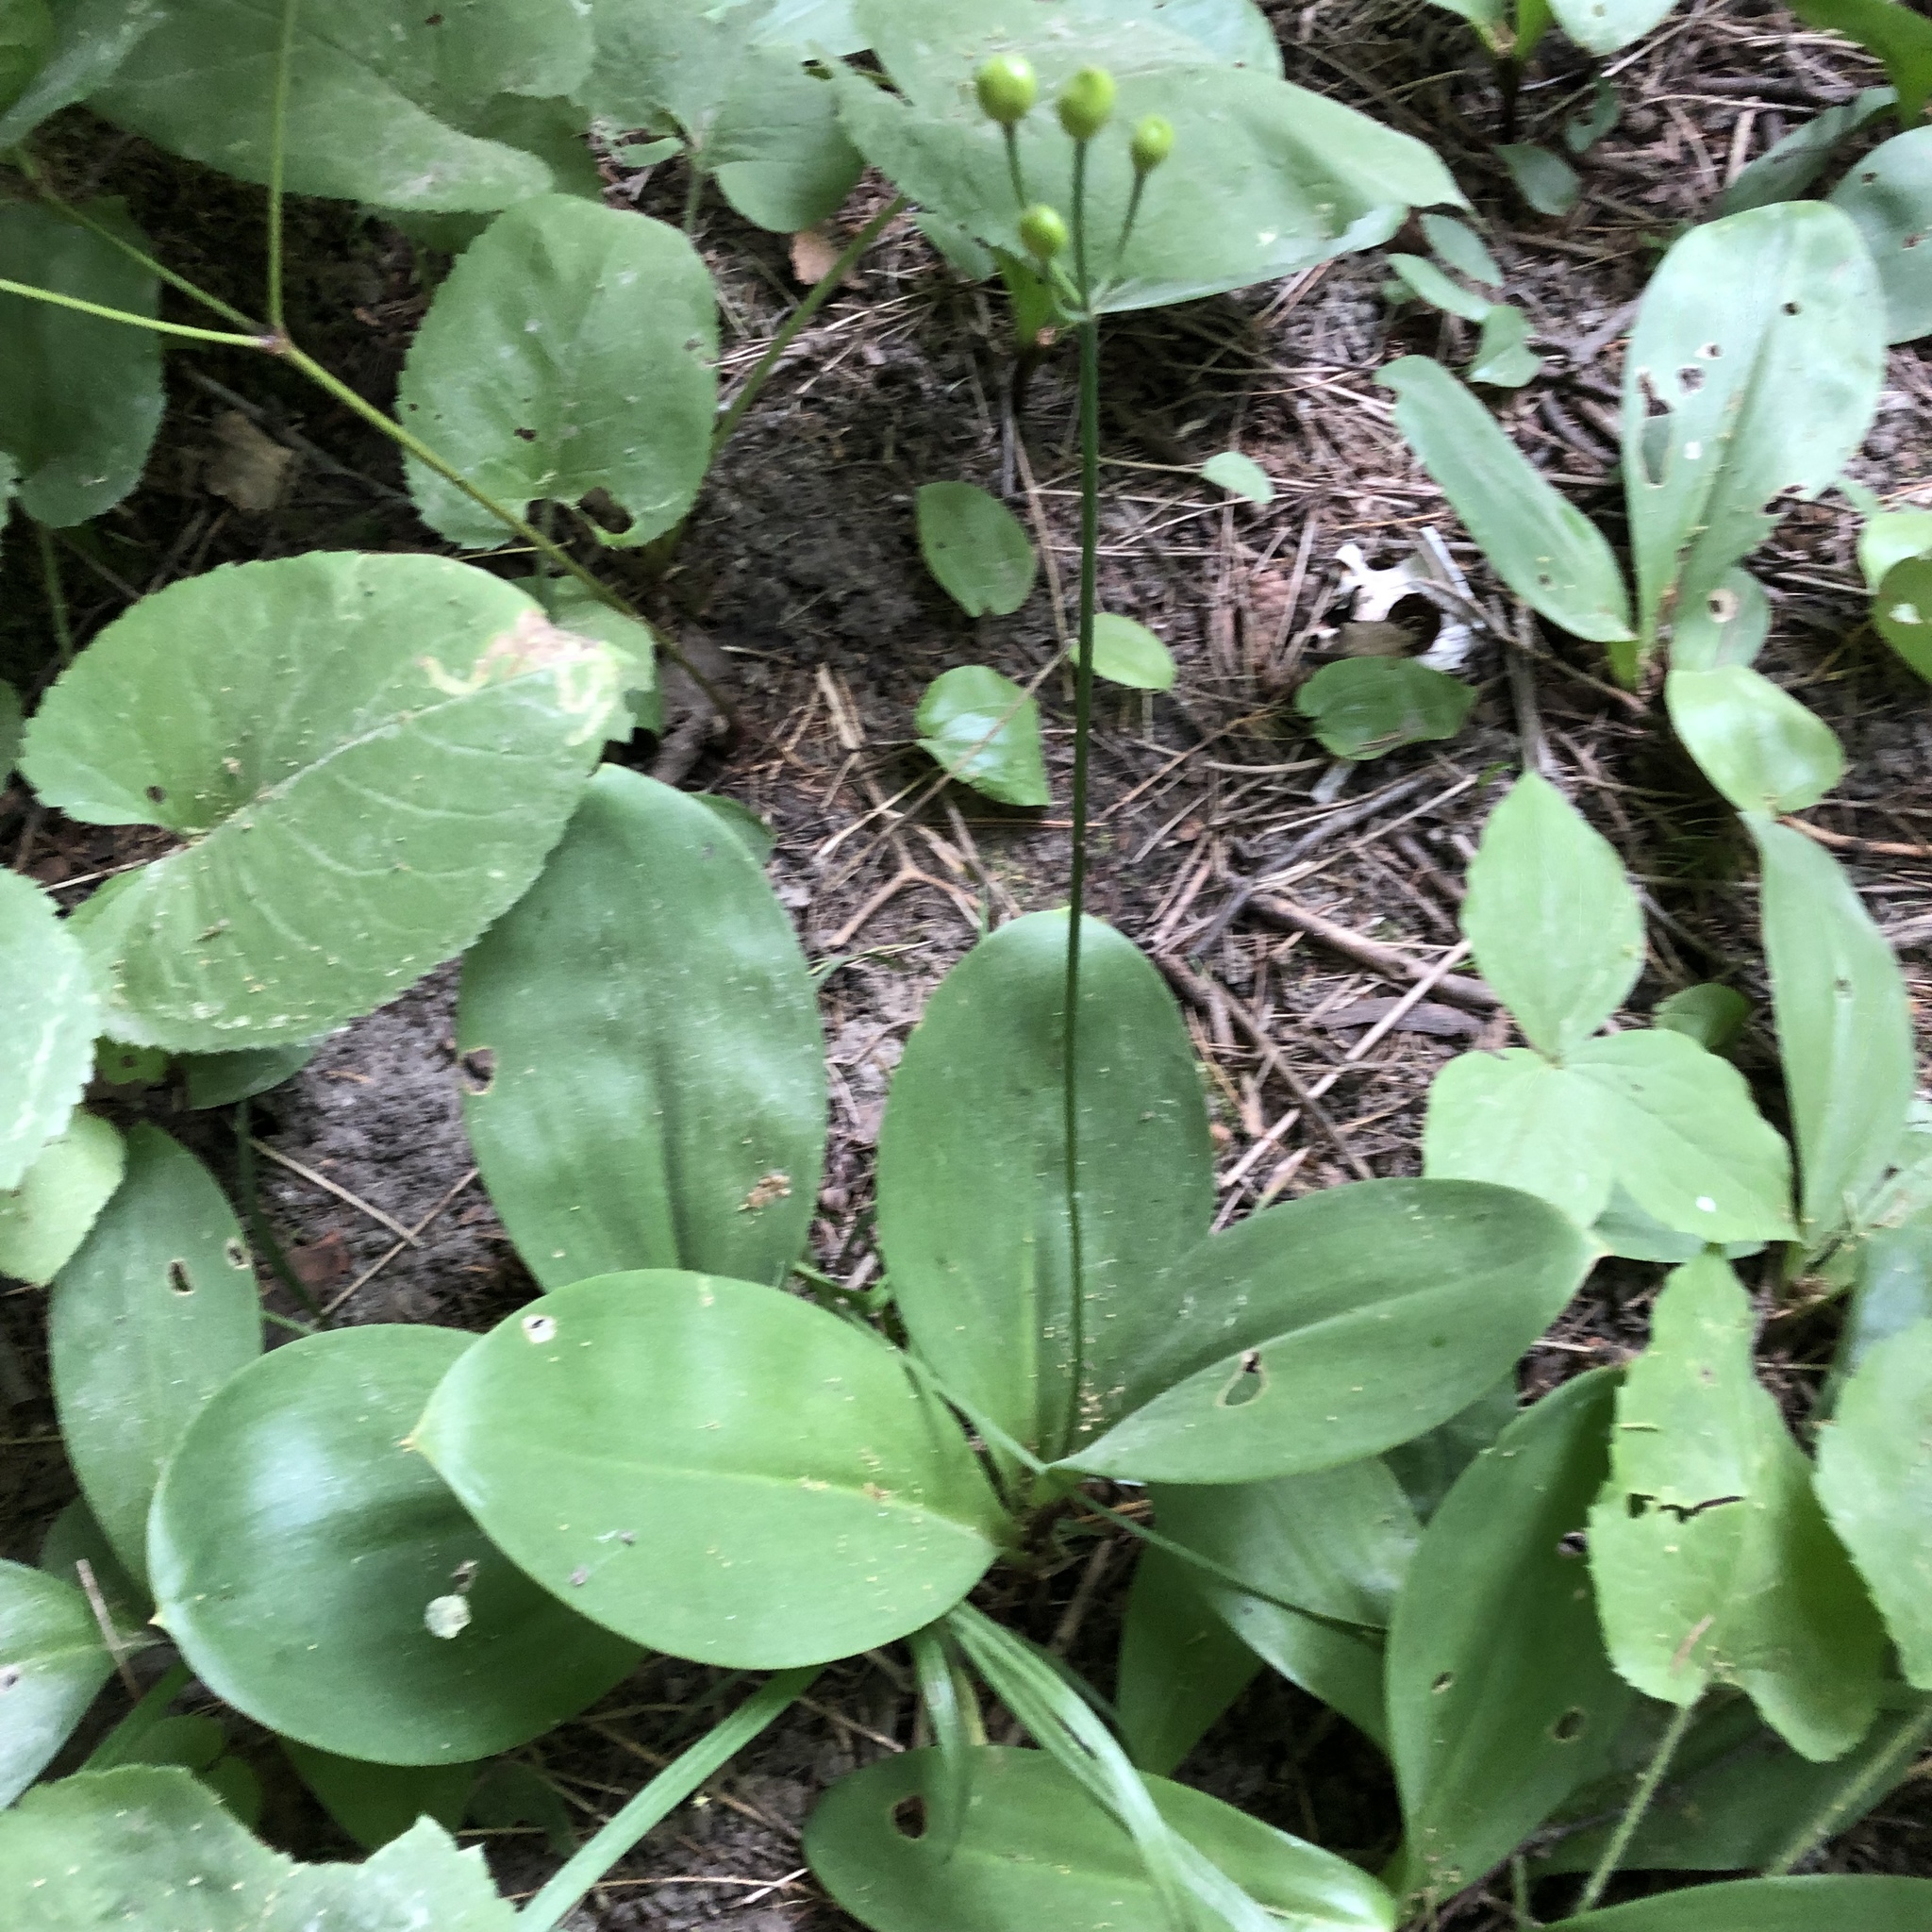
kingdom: Plantae
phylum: Tracheophyta
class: Liliopsida
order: Liliales
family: Liliaceae
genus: Clintonia
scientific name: Clintonia borealis
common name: Yellow clintonia
